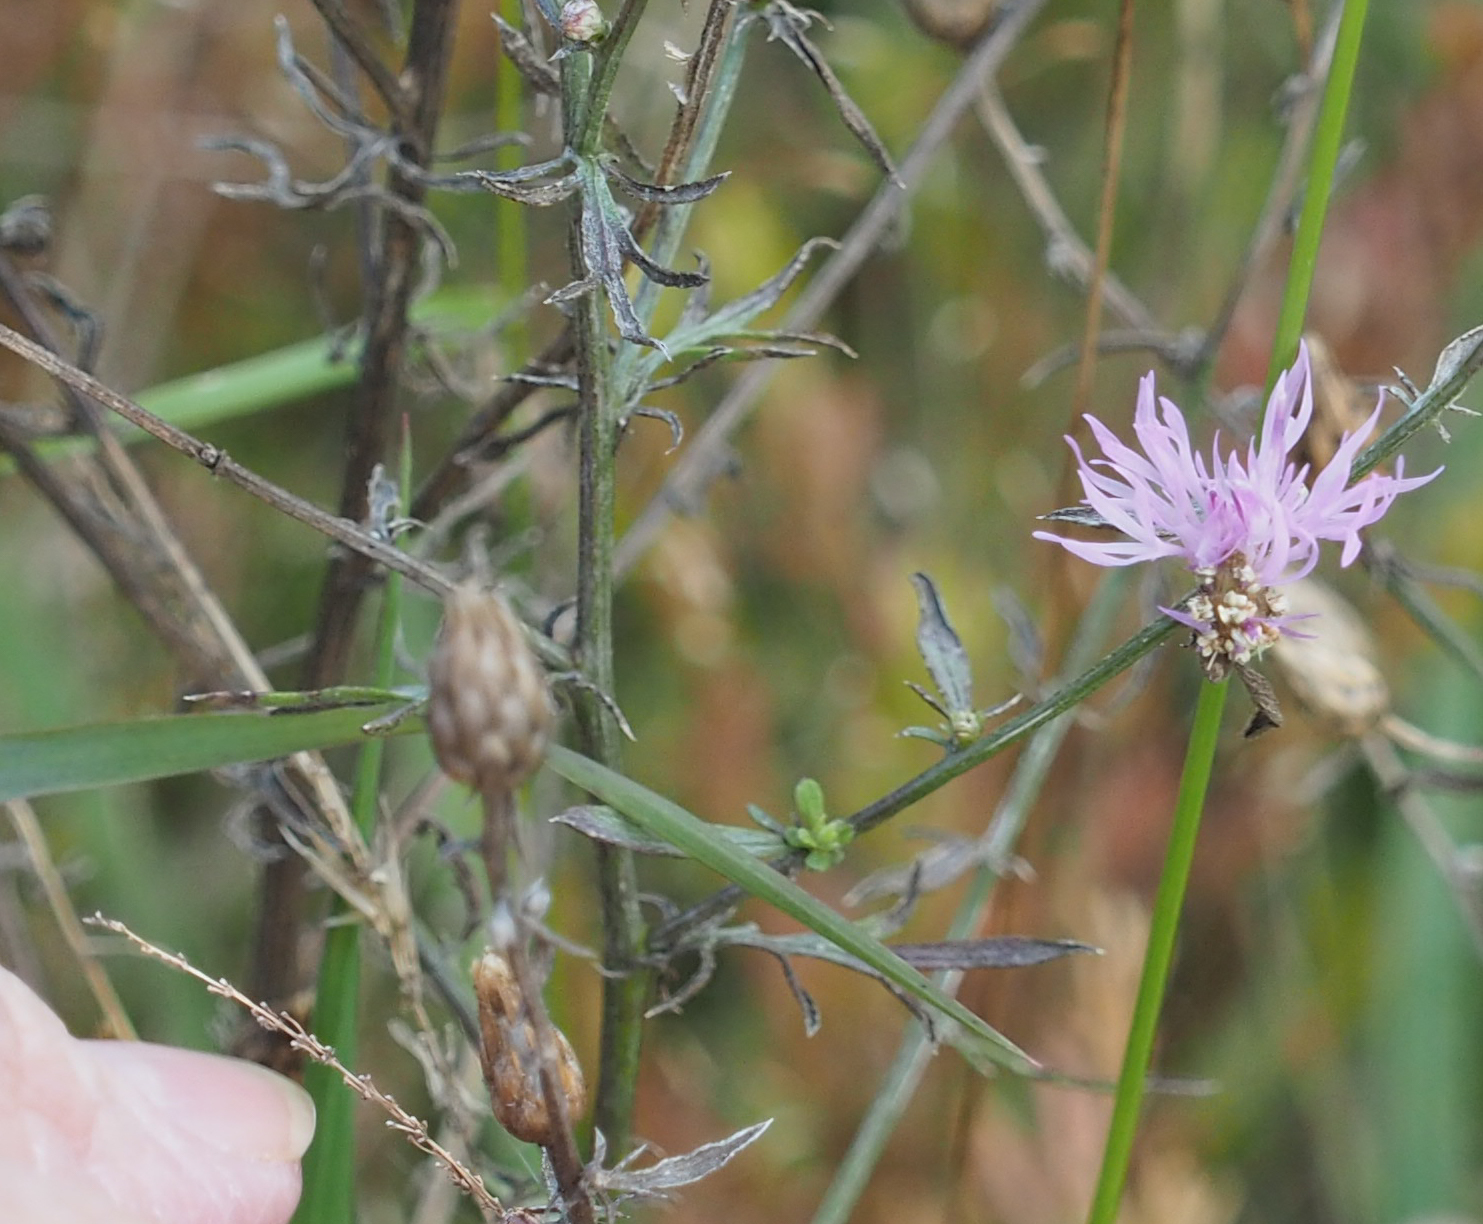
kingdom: Plantae
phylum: Tracheophyta
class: Magnoliopsida
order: Asterales
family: Asteraceae
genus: Centaurea
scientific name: Centaurea stoebe
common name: Spotted knapweed
